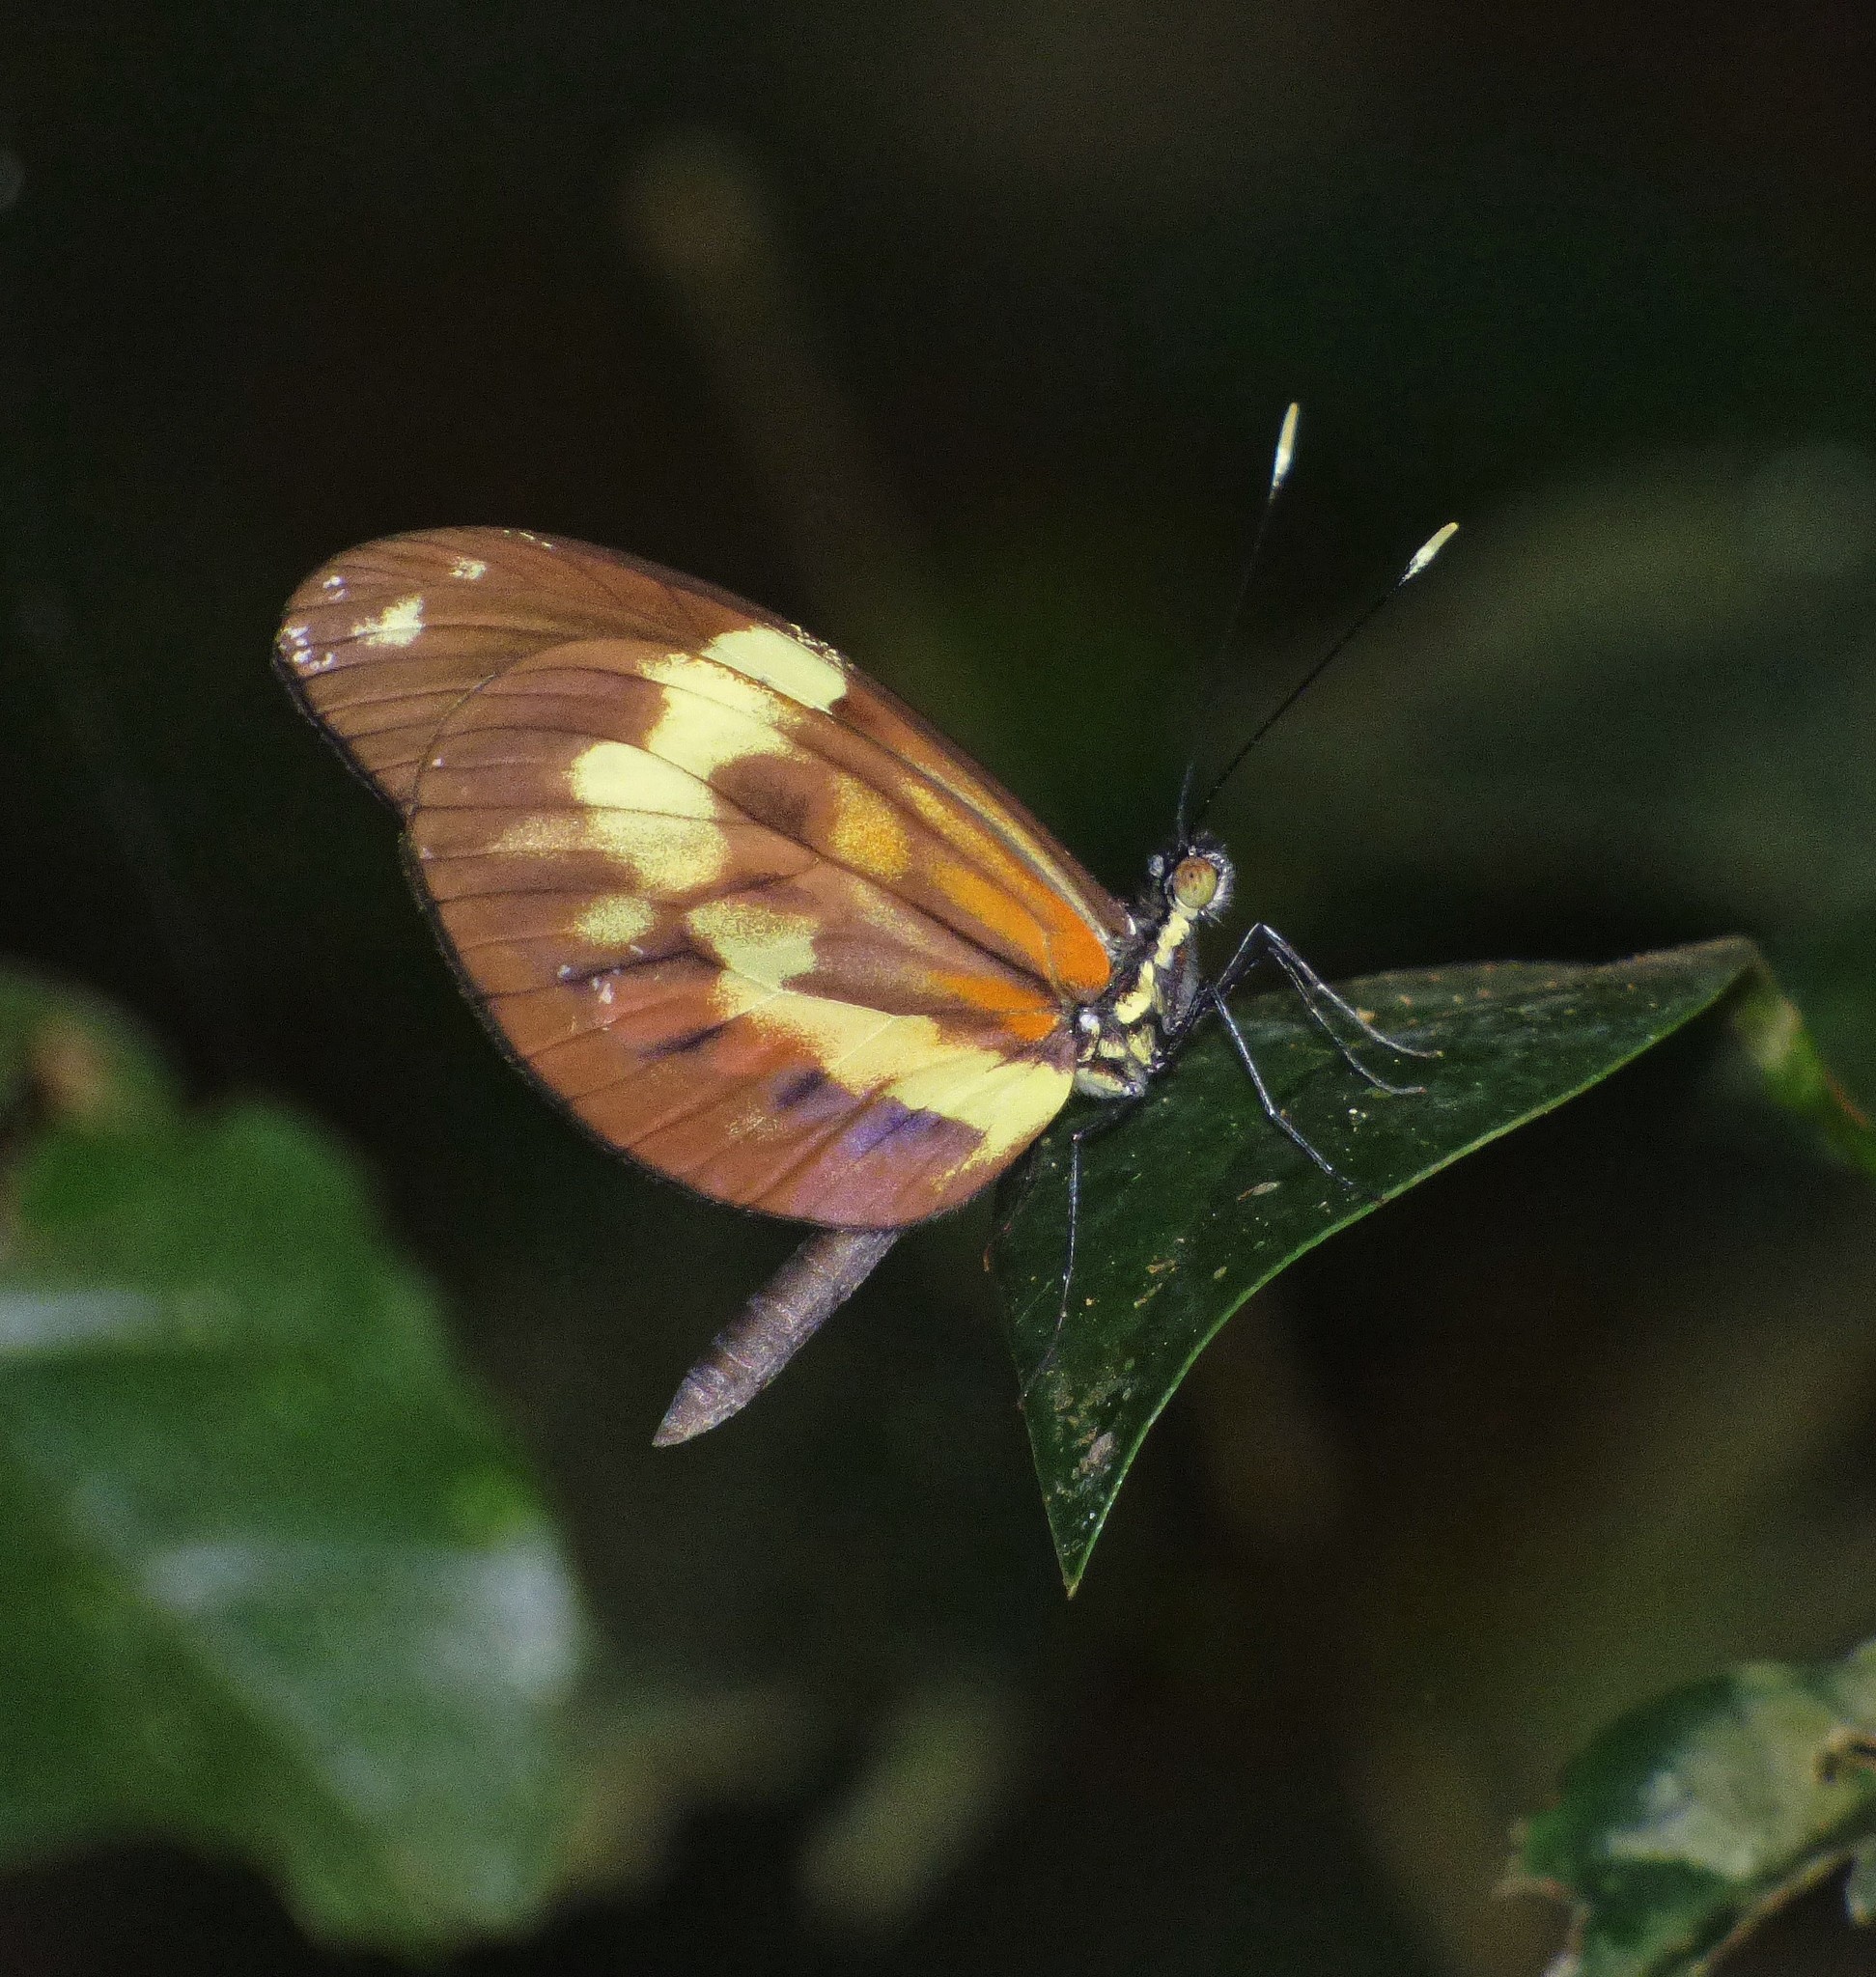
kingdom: Animalia
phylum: Arthropoda
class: Insecta
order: Lepidoptera
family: Pieridae
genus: Dismorphia
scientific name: Dismorphia amphione
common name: Tiger mimic-white
